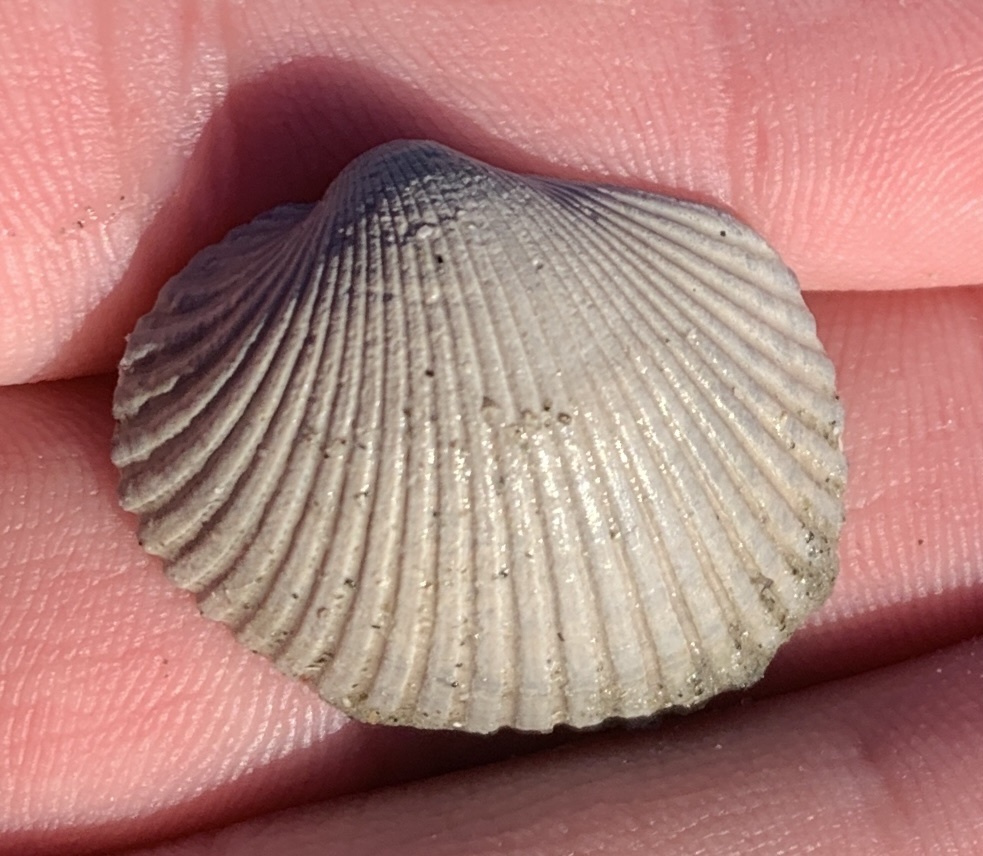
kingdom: Animalia
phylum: Mollusca
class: Bivalvia
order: Arcida
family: Arcidae
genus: Lunarca
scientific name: Lunarca ovalis
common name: Blood ark
